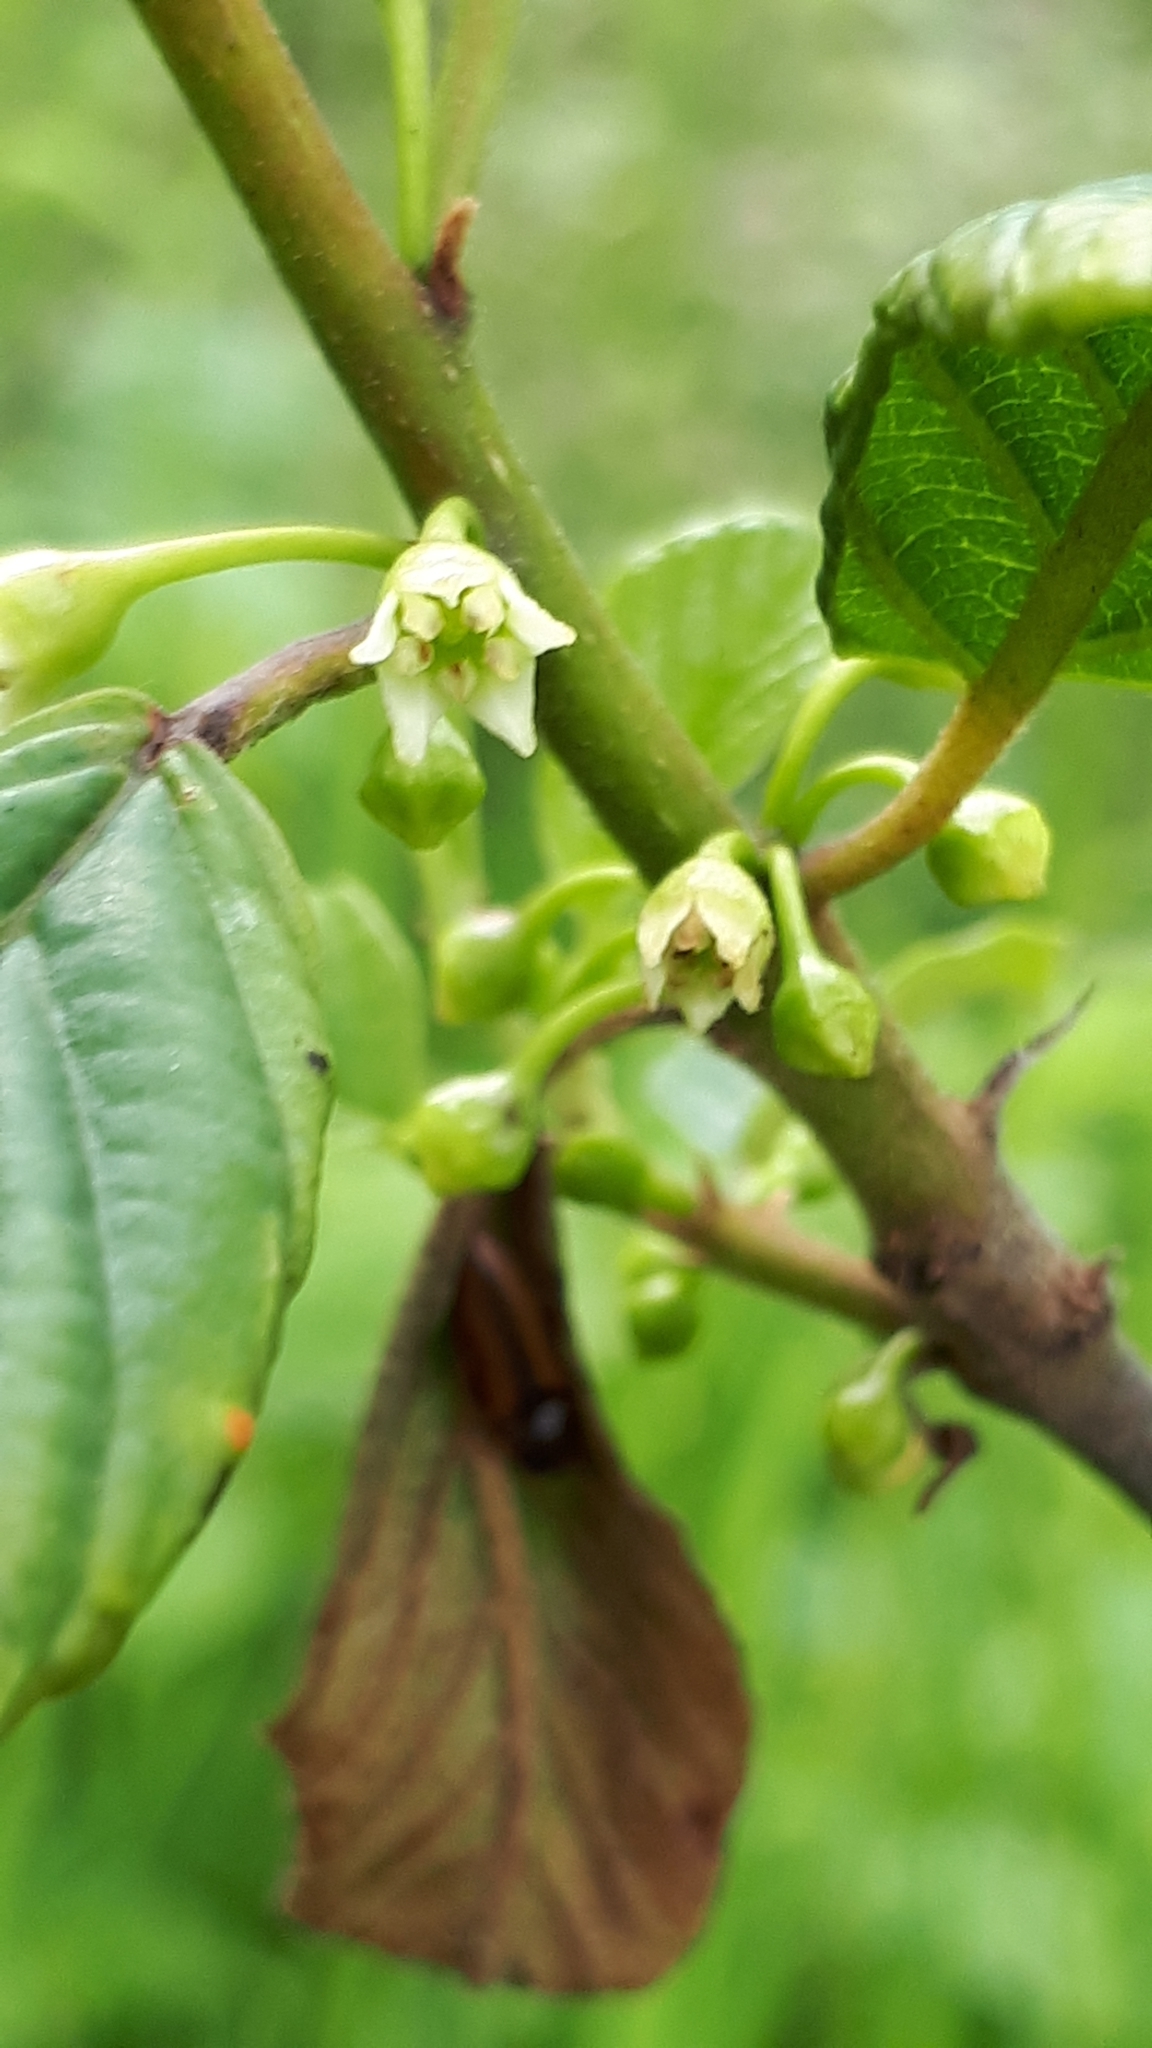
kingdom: Plantae
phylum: Tracheophyta
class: Magnoliopsida
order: Rosales
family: Rhamnaceae
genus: Frangula
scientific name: Frangula alnus
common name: Alder buckthorn
